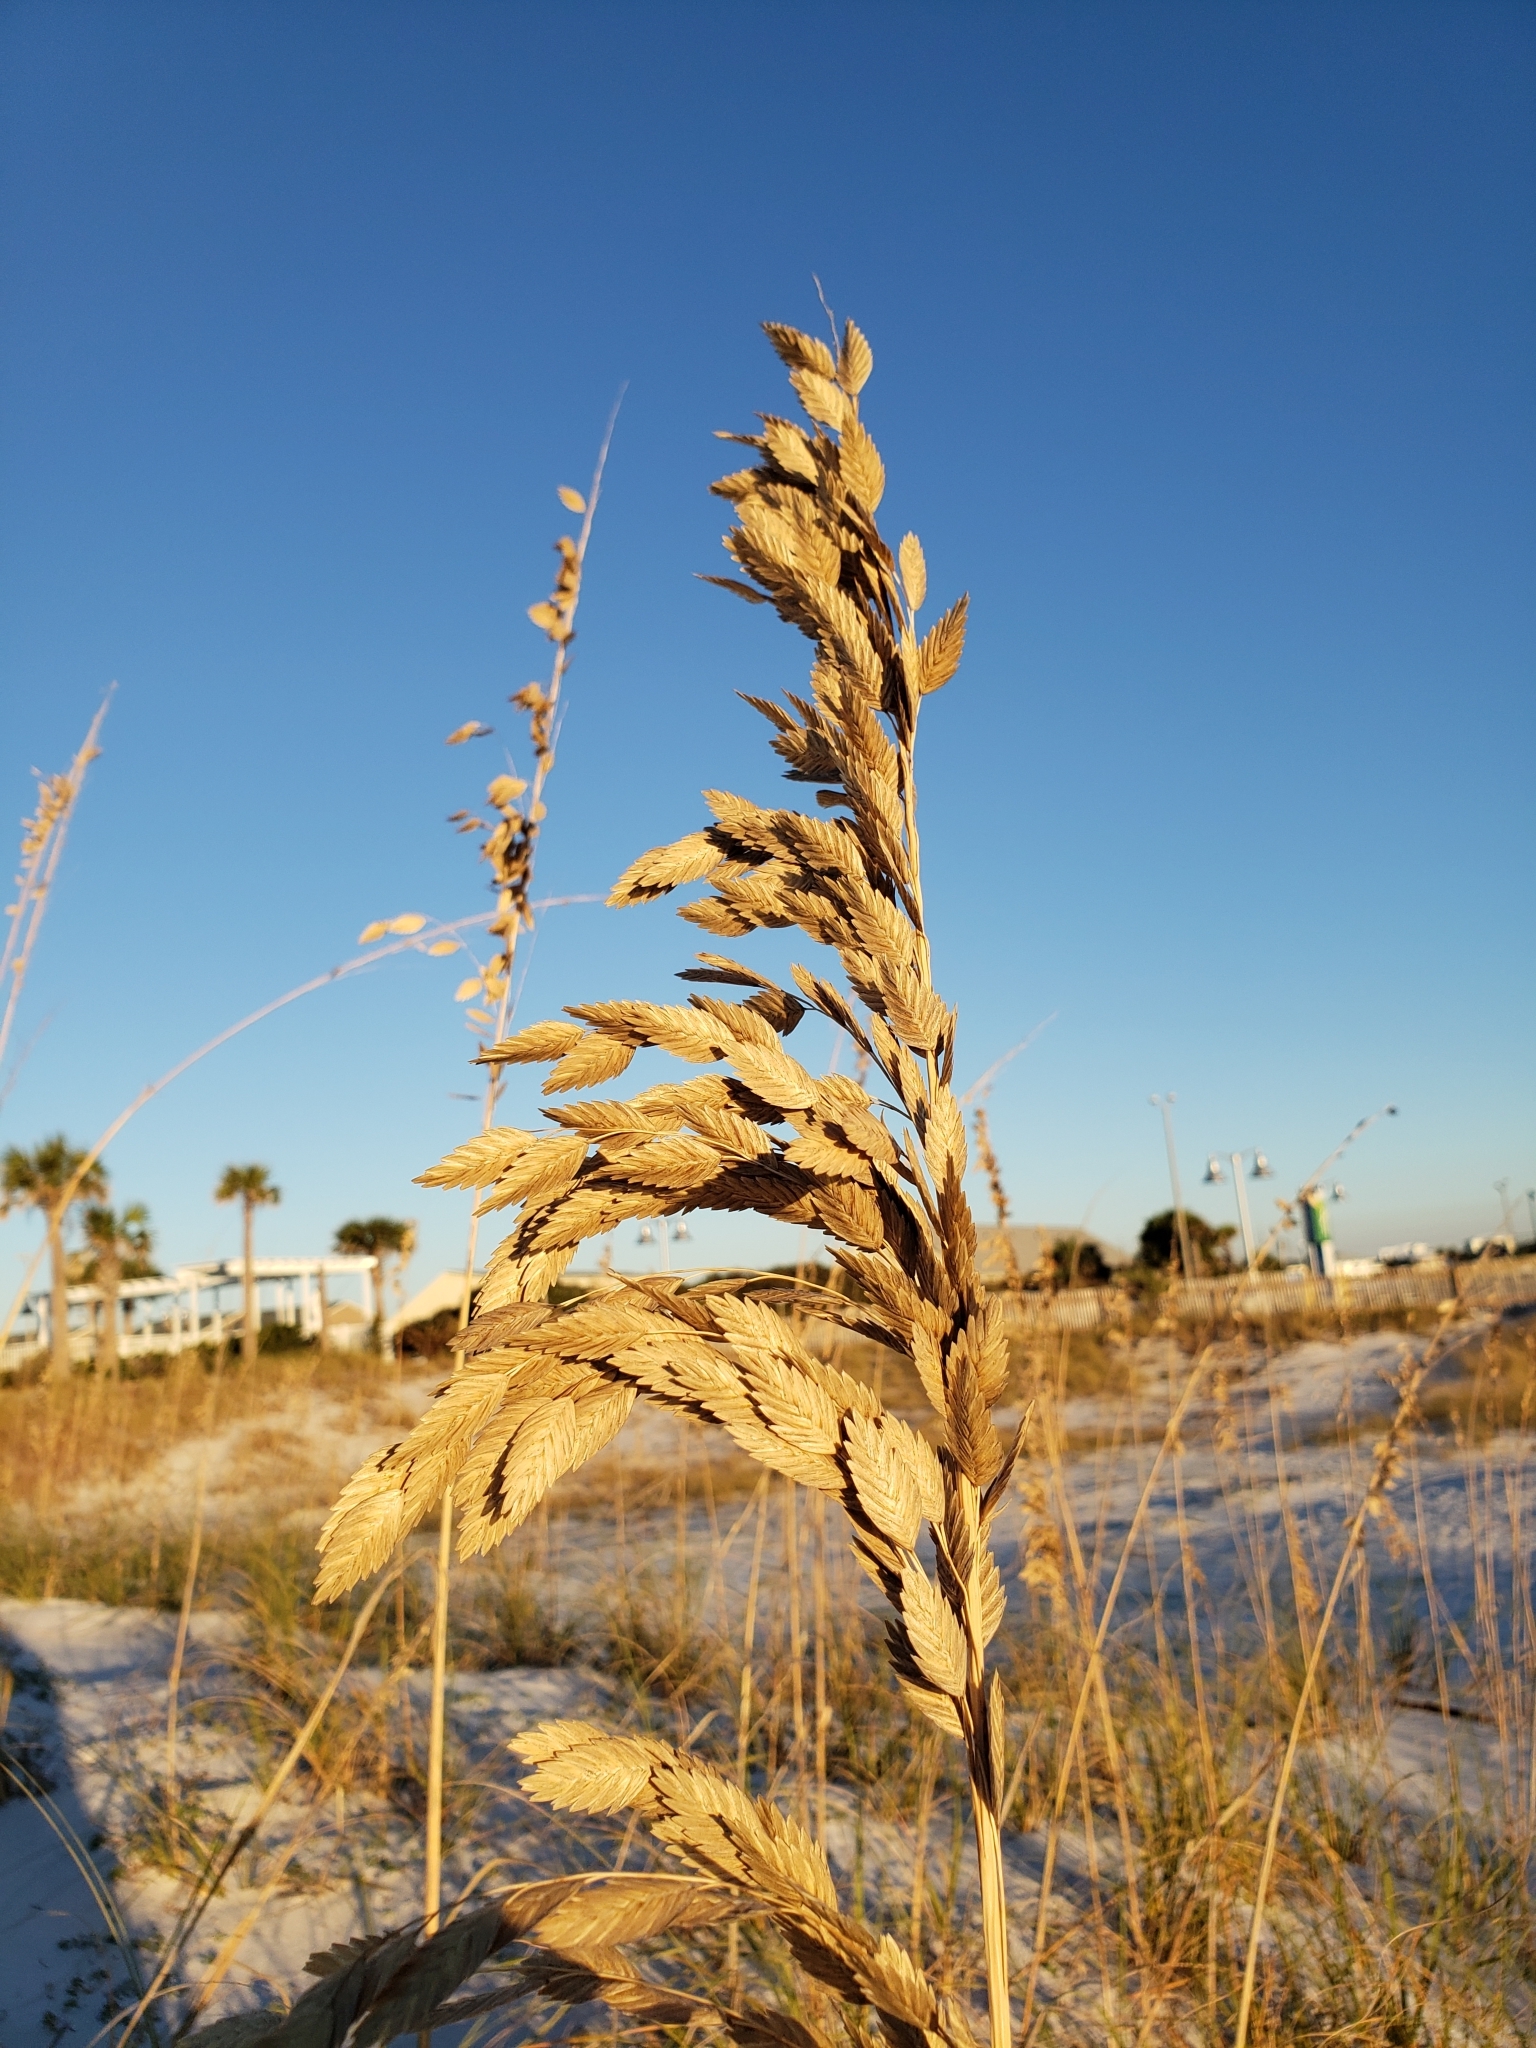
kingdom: Plantae
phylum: Tracheophyta
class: Liliopsida
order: Poales
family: Poaceae
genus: Uniola
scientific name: Uniola paniculata
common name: Seaside-oats
